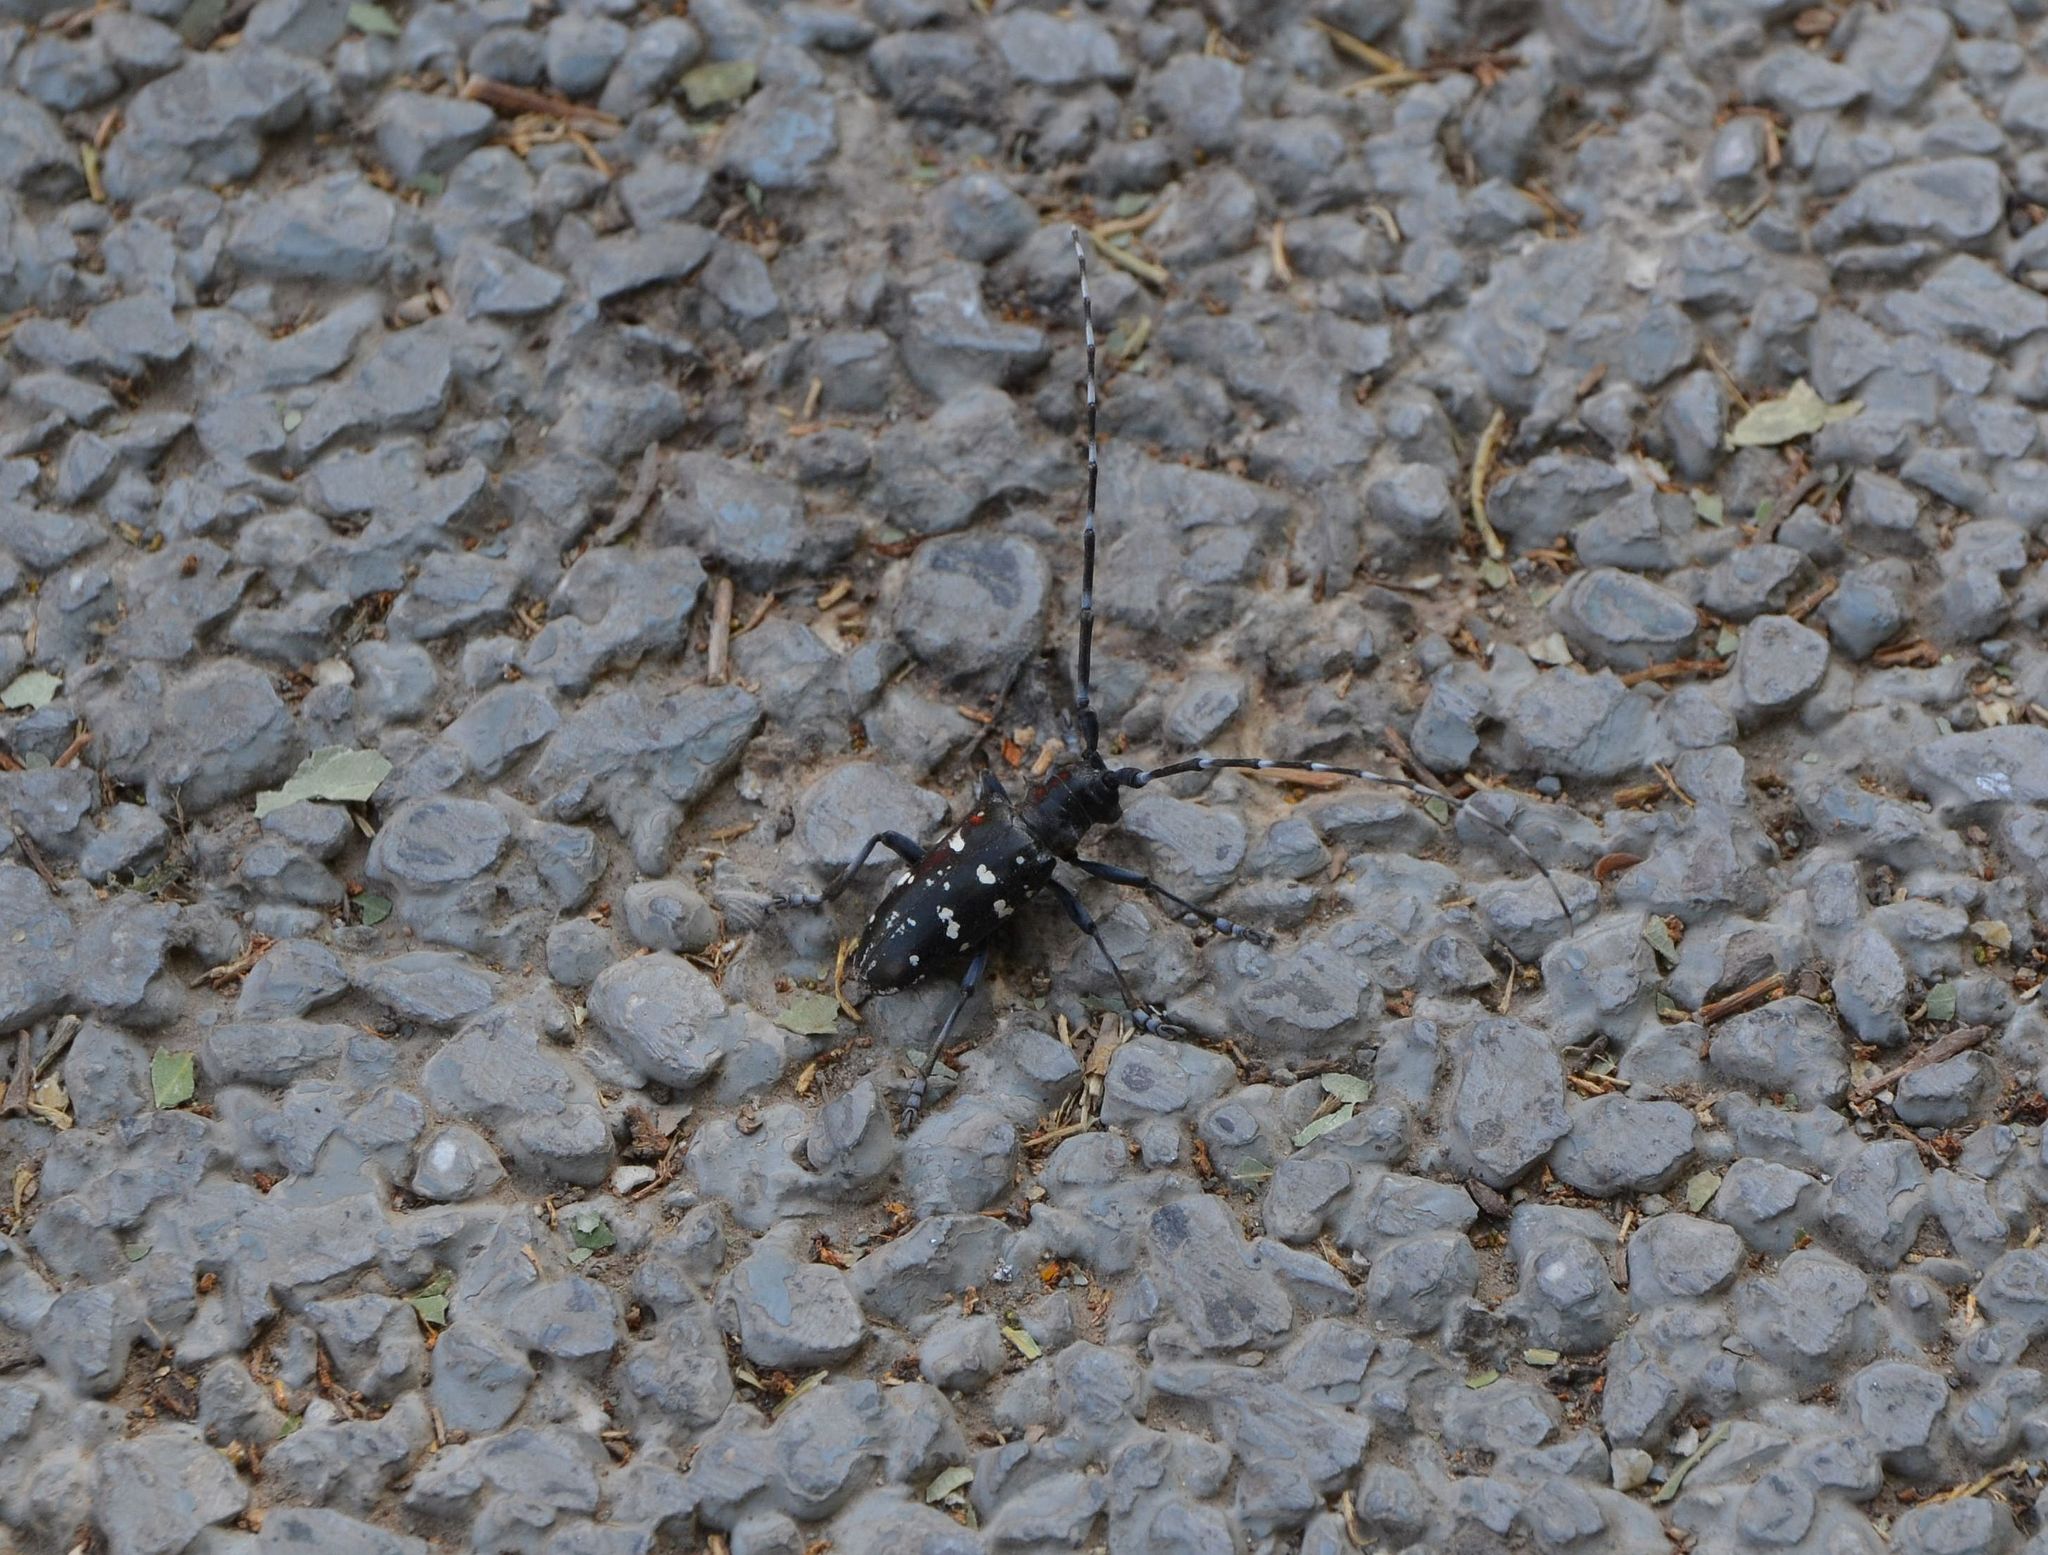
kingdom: Animalia
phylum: Arthropoda
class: Insecta
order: Coleoptera
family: Cerambycidae
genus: Anoplophora
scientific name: Anoplophora glabripennis
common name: Asian longhorned beetle
